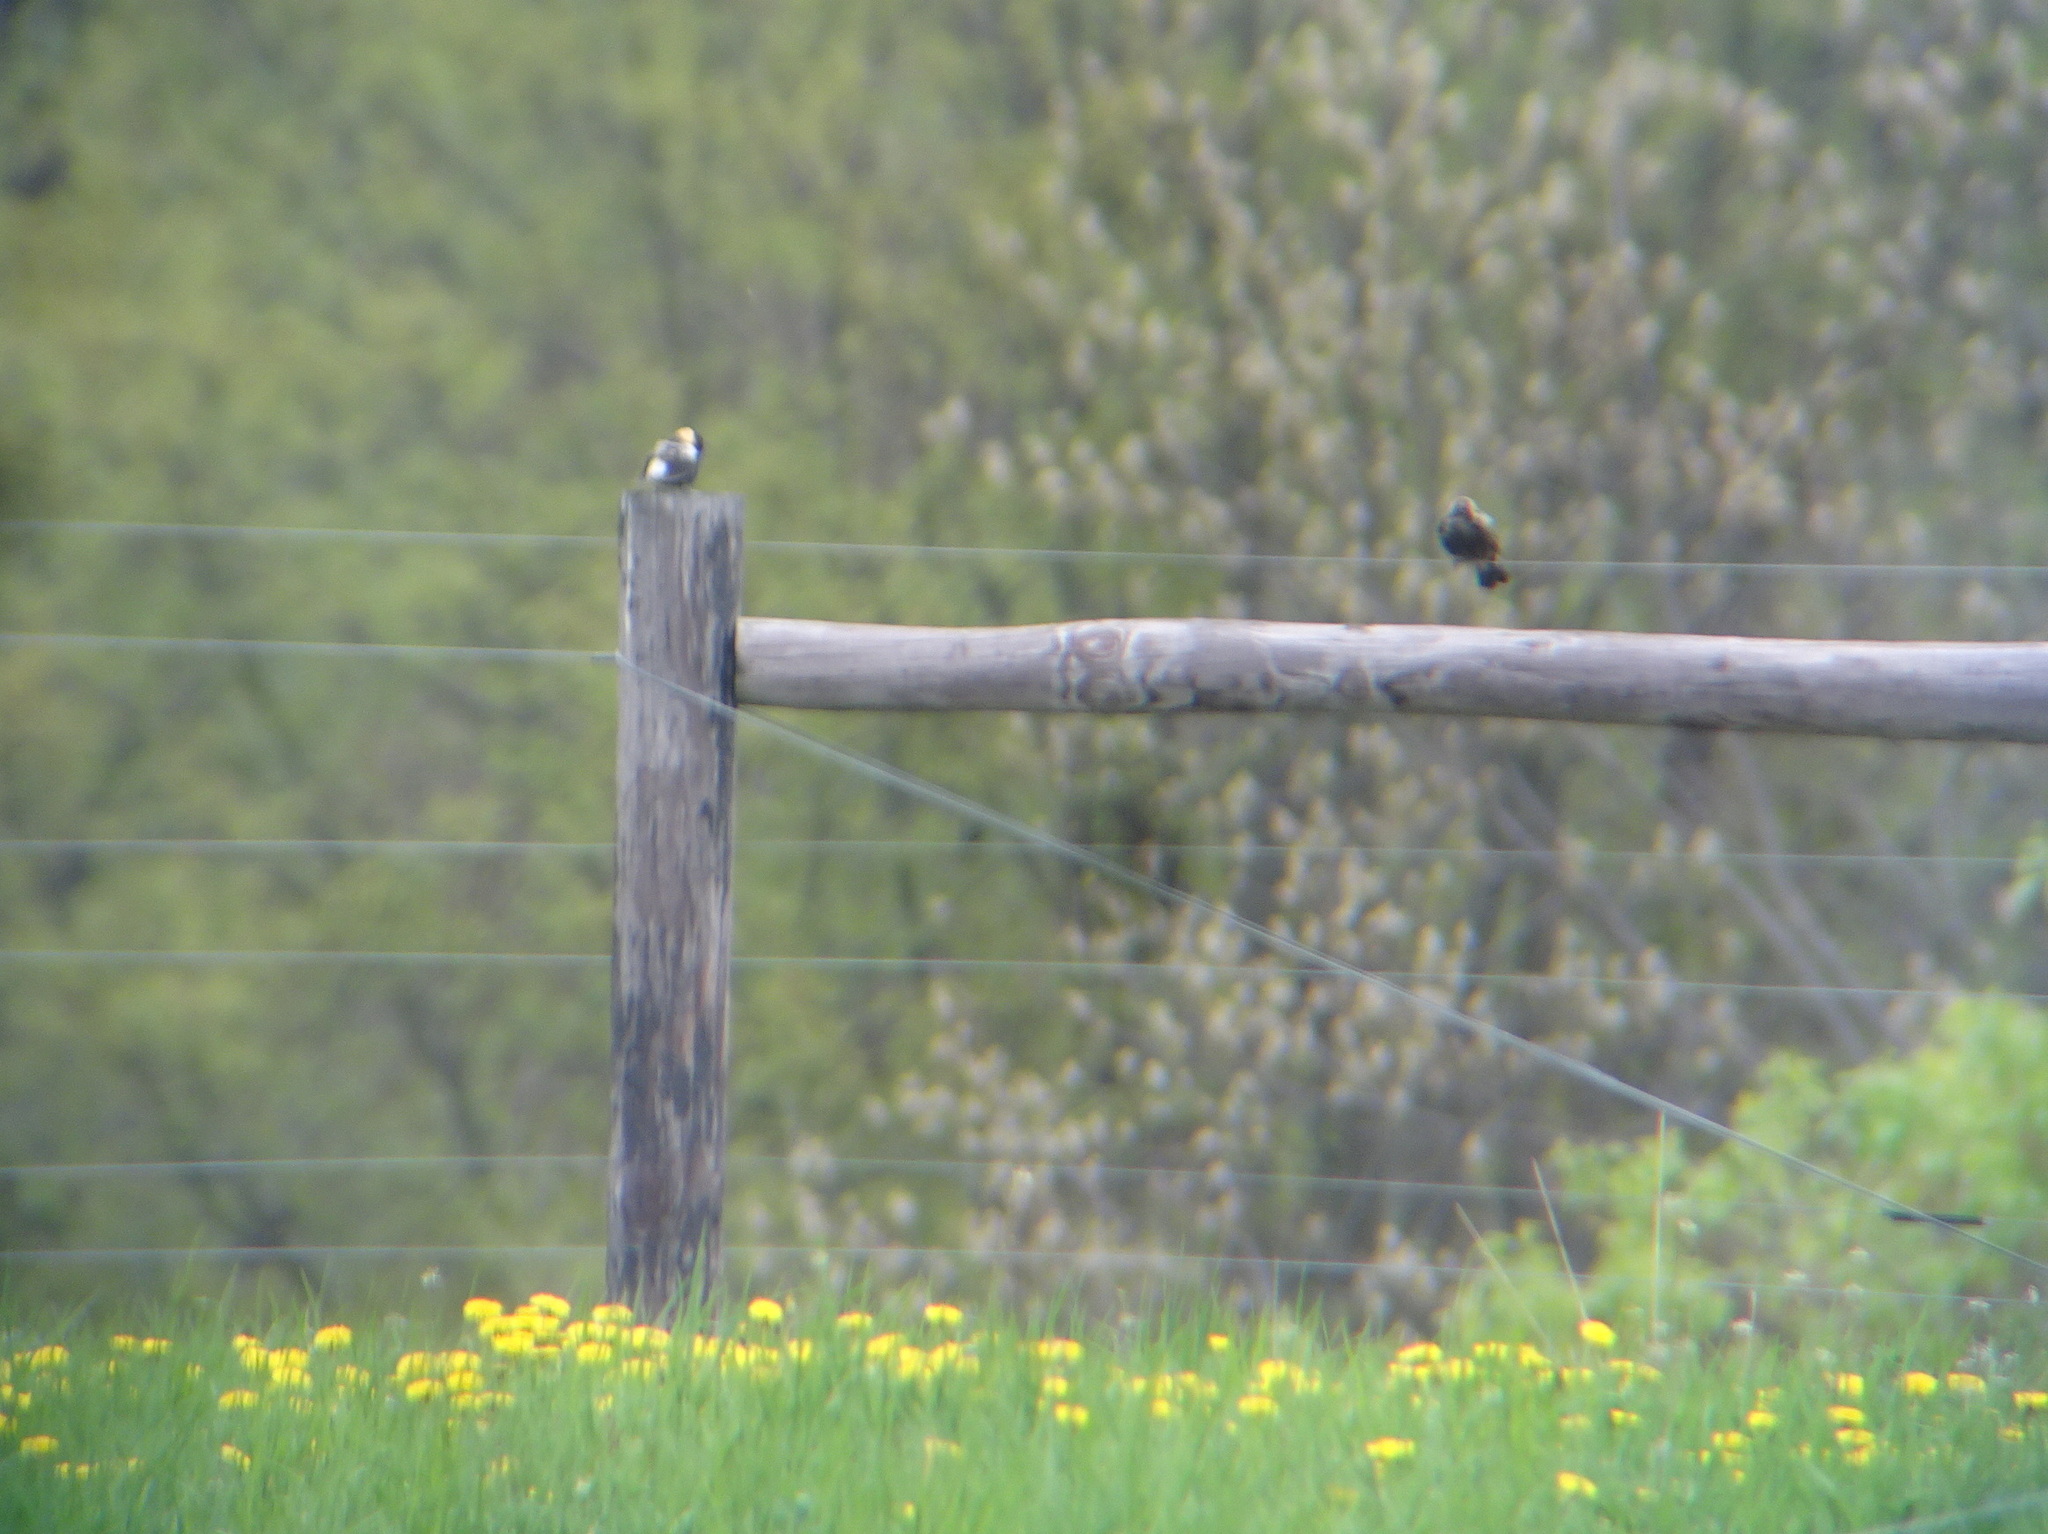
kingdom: Animalia
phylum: Chordata
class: Aves
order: Passeriformes
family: Icteridae
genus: Dolichonyx
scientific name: Dolichonyx oryzivorus
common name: Bobolink
